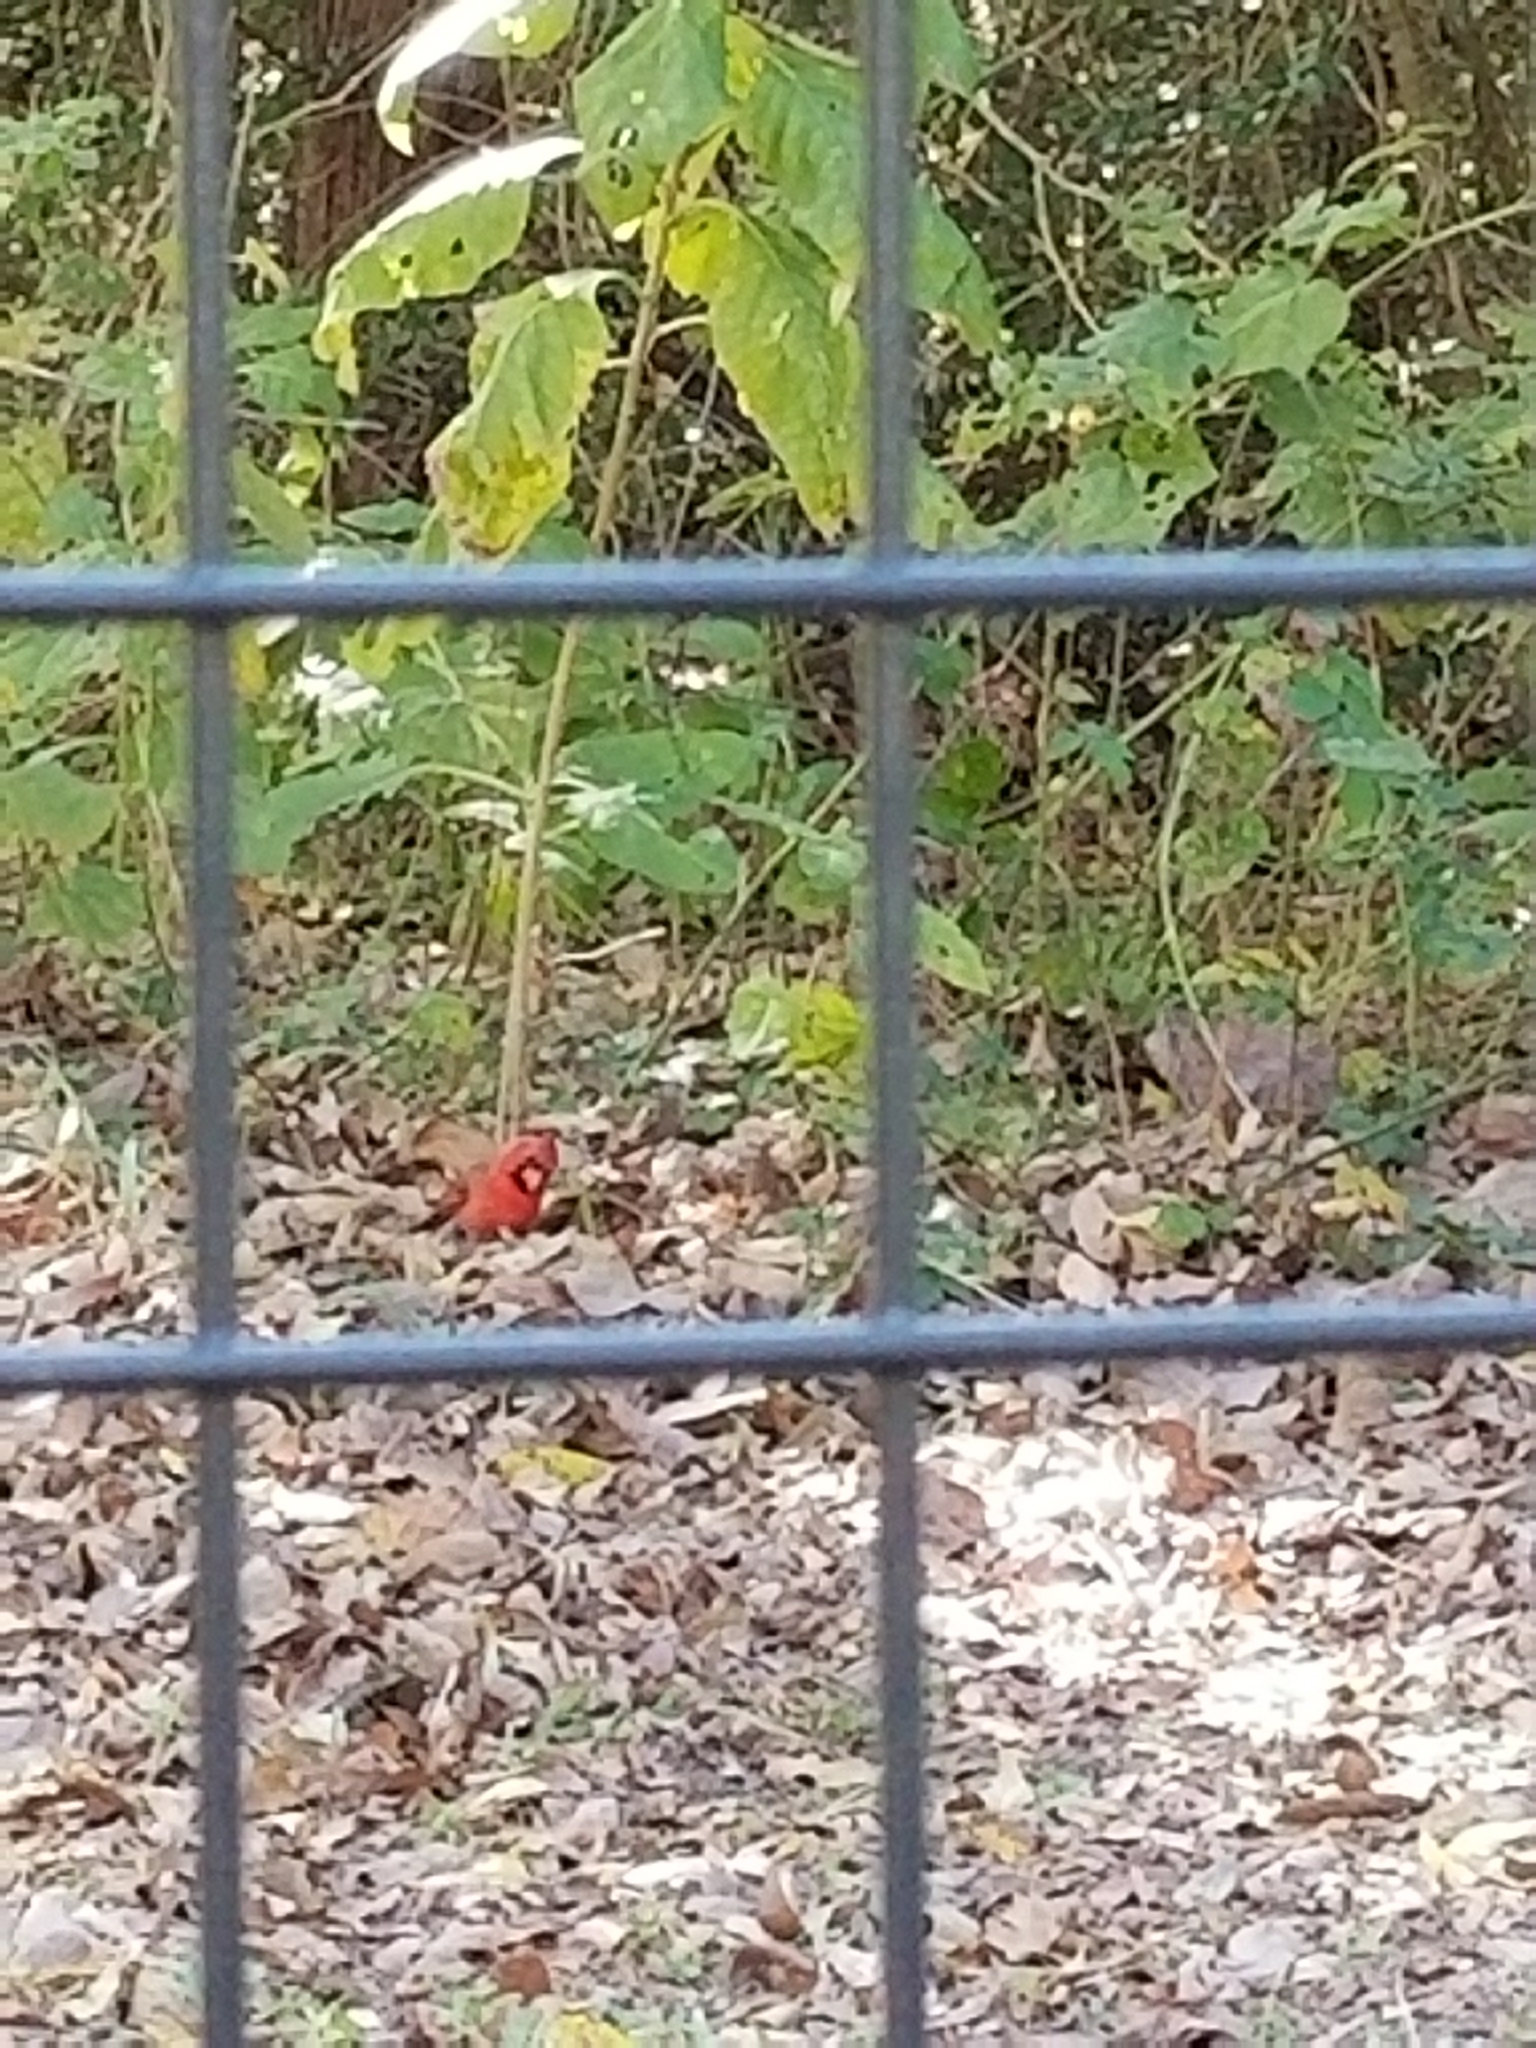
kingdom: Animalia
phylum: Chordata
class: Aves
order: Passeriformes
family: Cardinalidae
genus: Cardinalis
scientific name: Cardinalis cardinalis
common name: Northern cardinal
